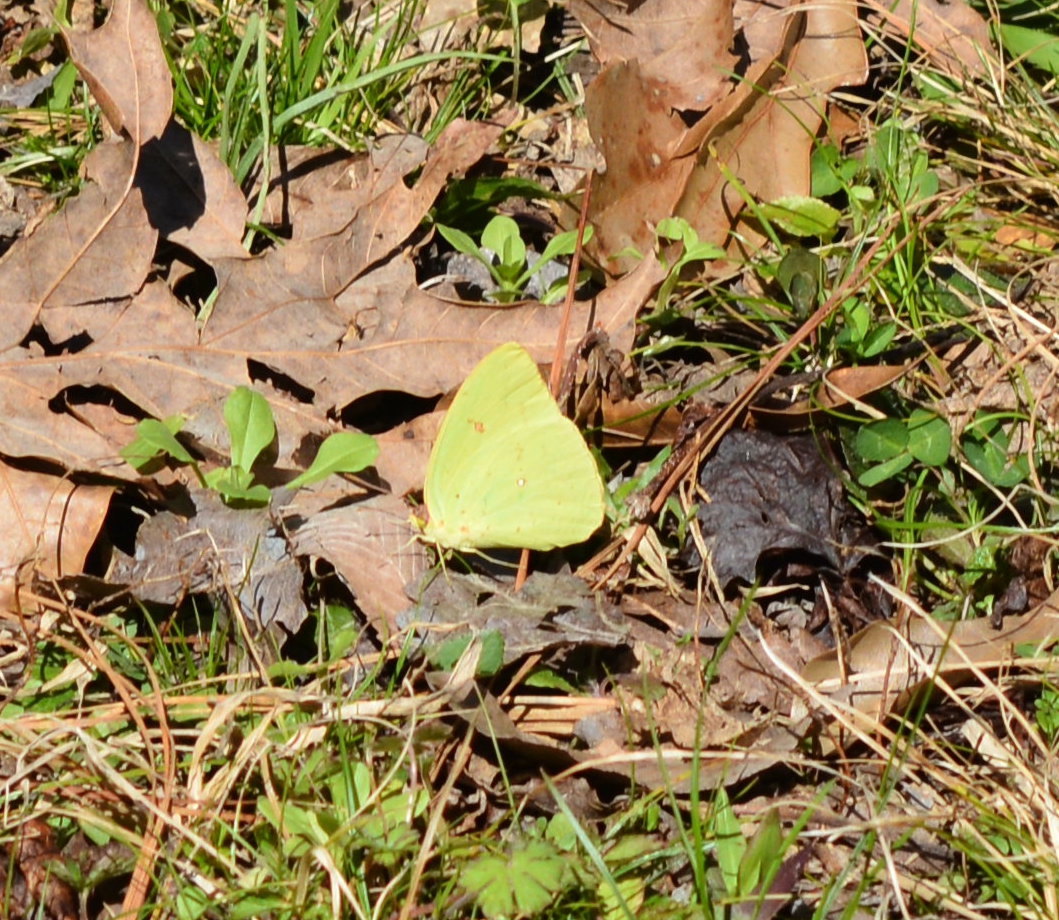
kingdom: Animalia
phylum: Arthropoda
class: Insecta
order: Lepidoptera
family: Pieridae
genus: Phoebis
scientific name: Phoebis sennae
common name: Cloudless sulphur
